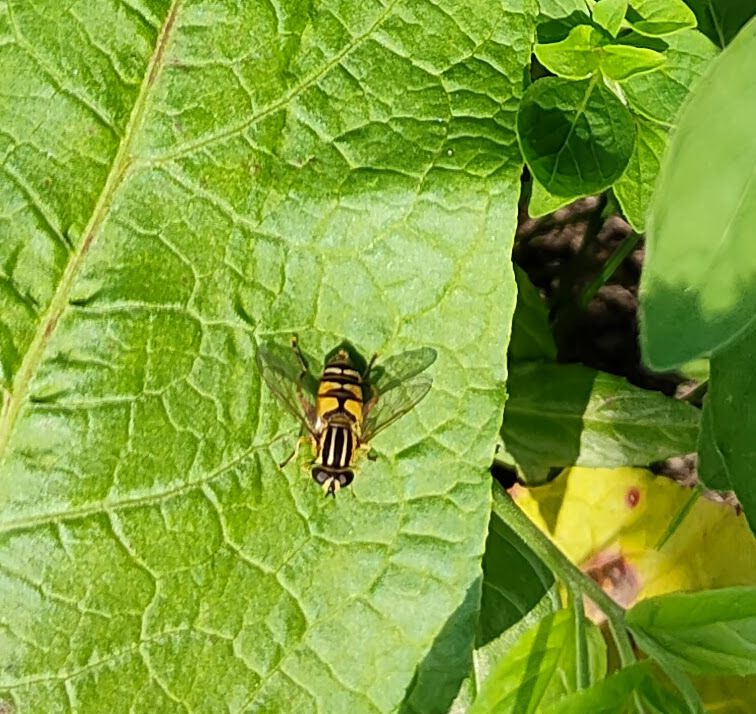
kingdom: Animalia
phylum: Arthropoda
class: Insecta
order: Diptera
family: Syrphidae
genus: Helophilus
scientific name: Helophilus pendulus
